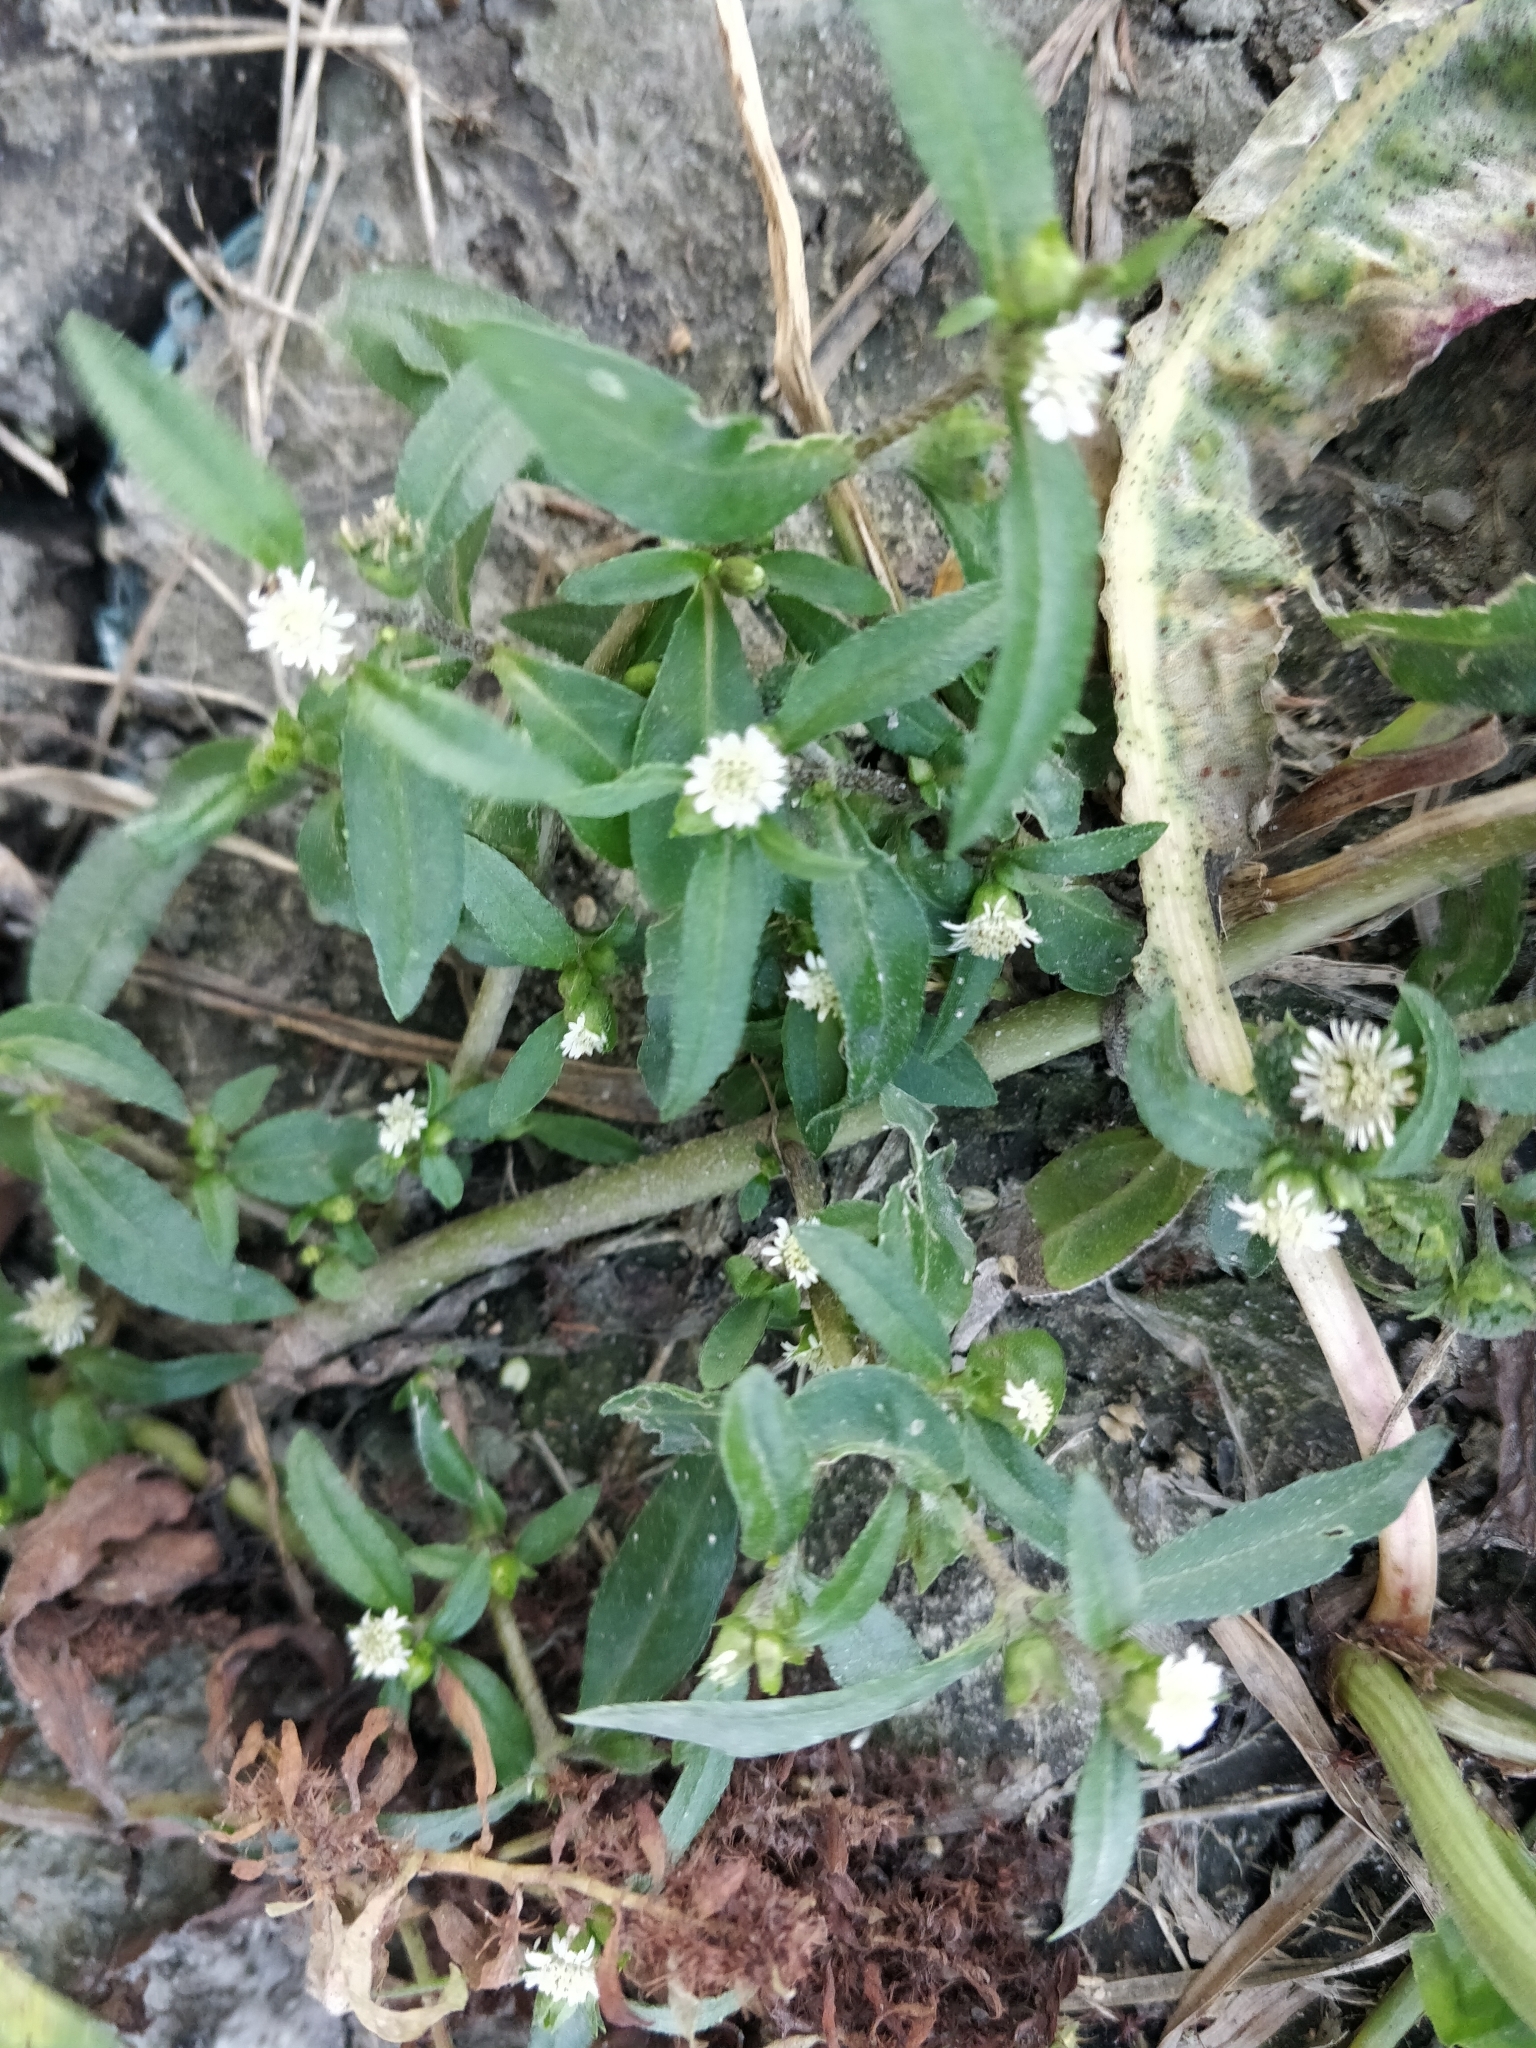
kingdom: Plantae
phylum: Tracheophyta
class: Magnoliopsida
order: Asterales
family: Asteraceae
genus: Eclipta
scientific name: Eclipta prostrata
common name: False daisy
